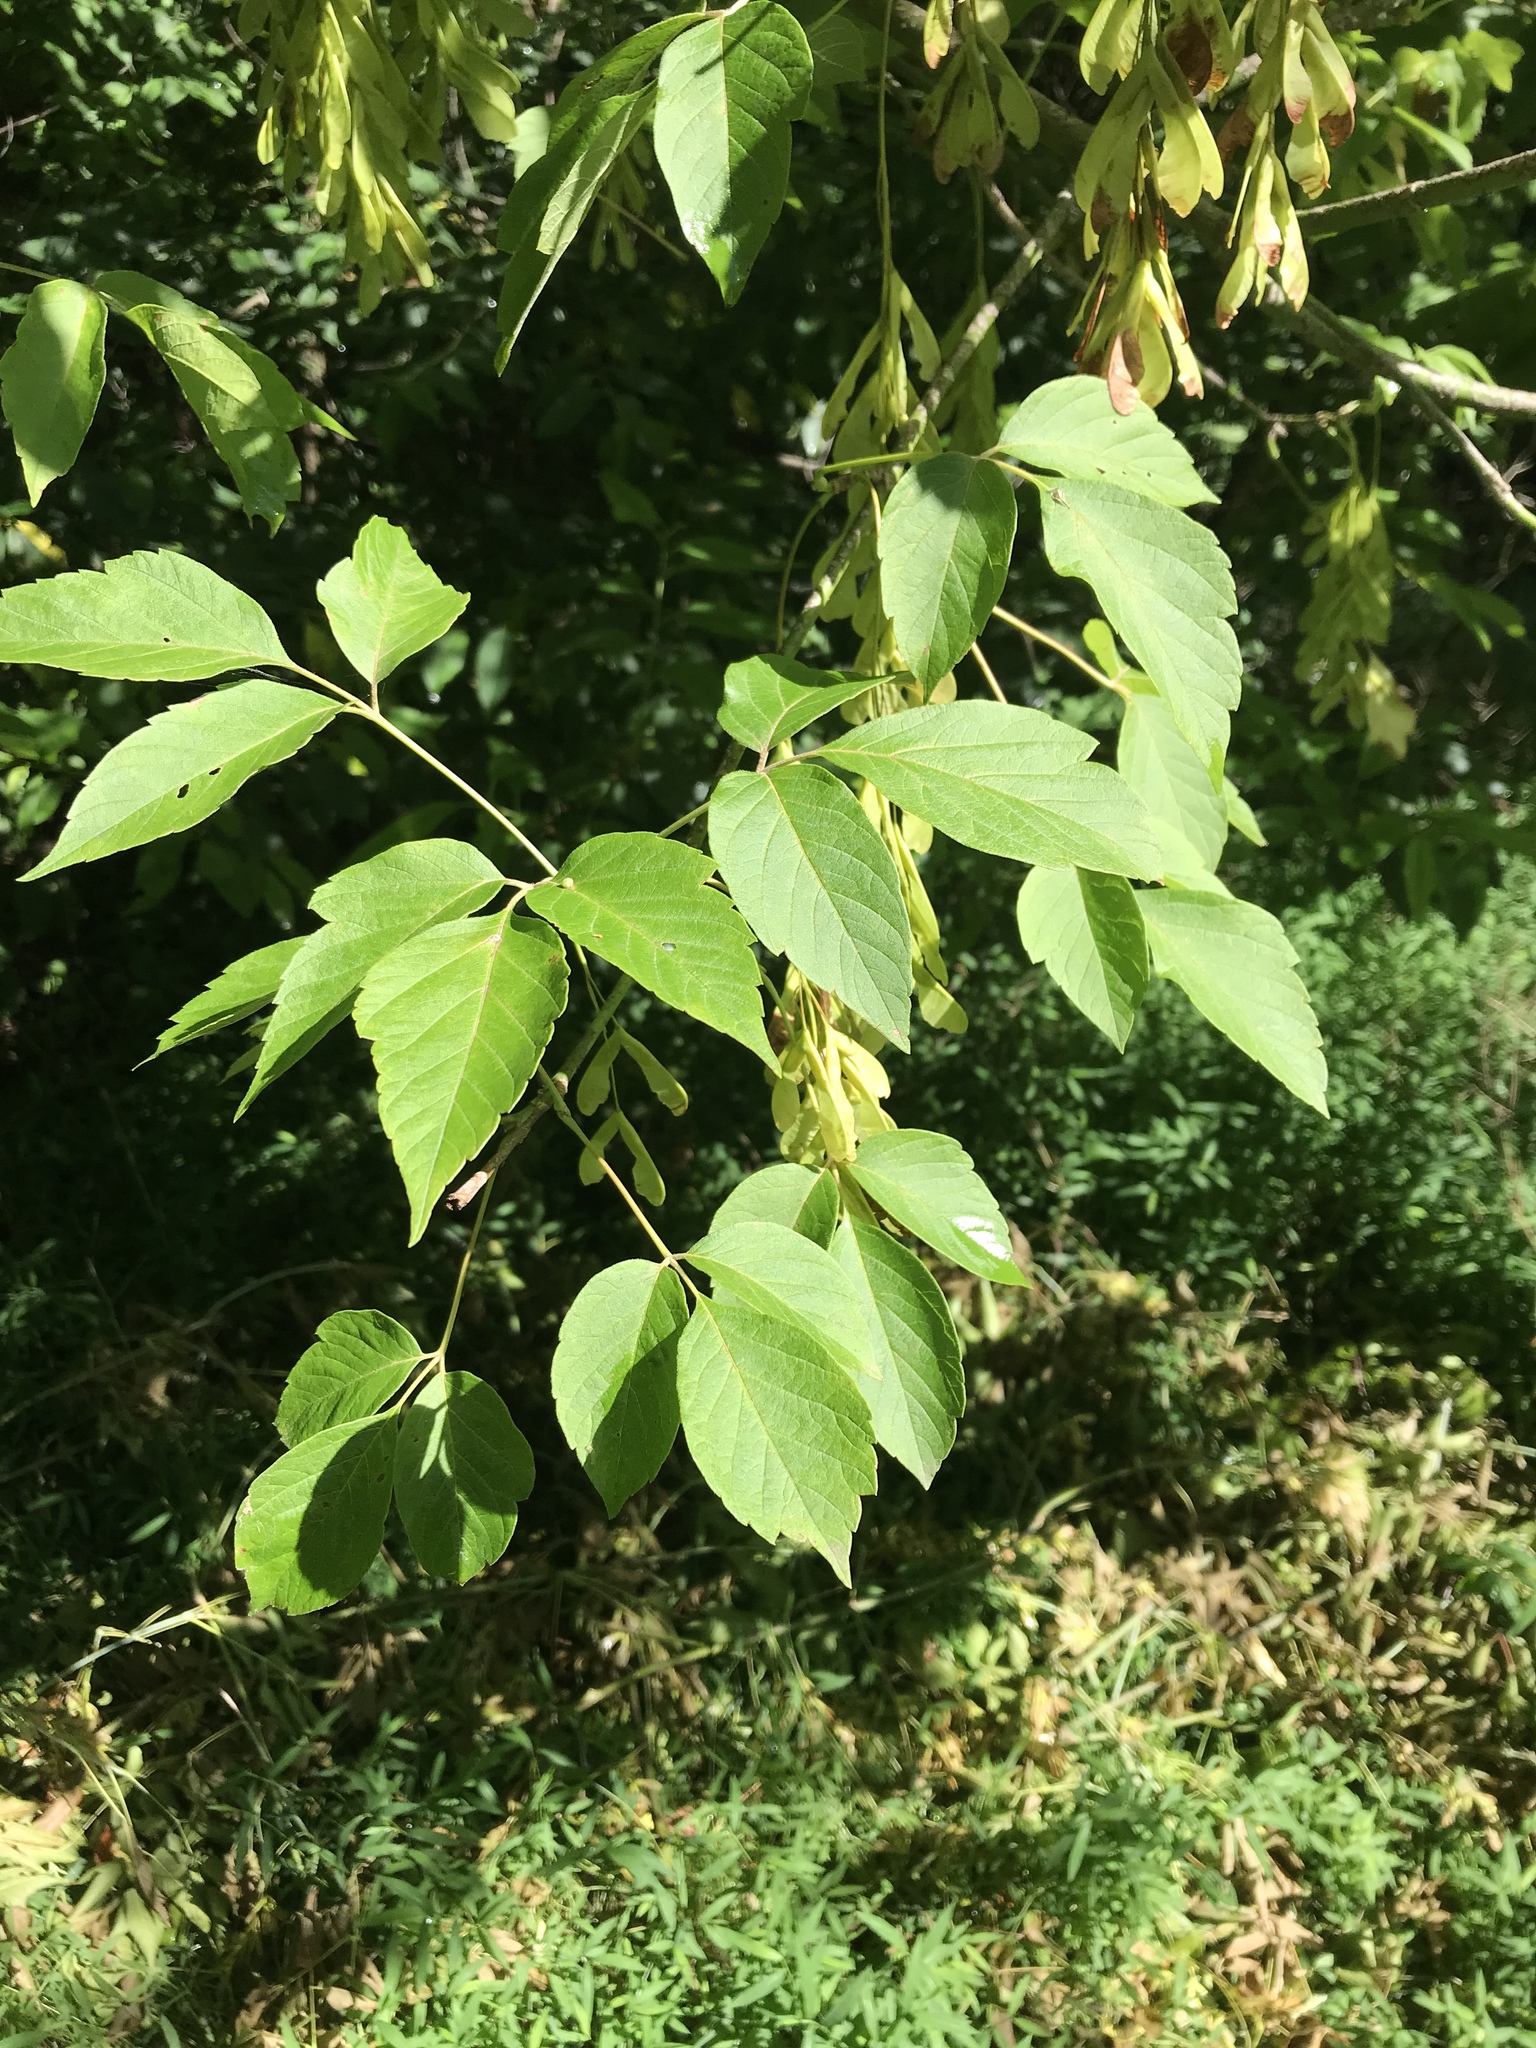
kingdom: Plantae
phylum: Tracheophyta
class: Magnoliopsida
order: Sapindales
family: Sapindaceae
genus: Acer
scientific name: Acer negundo
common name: Ashleaf maple
